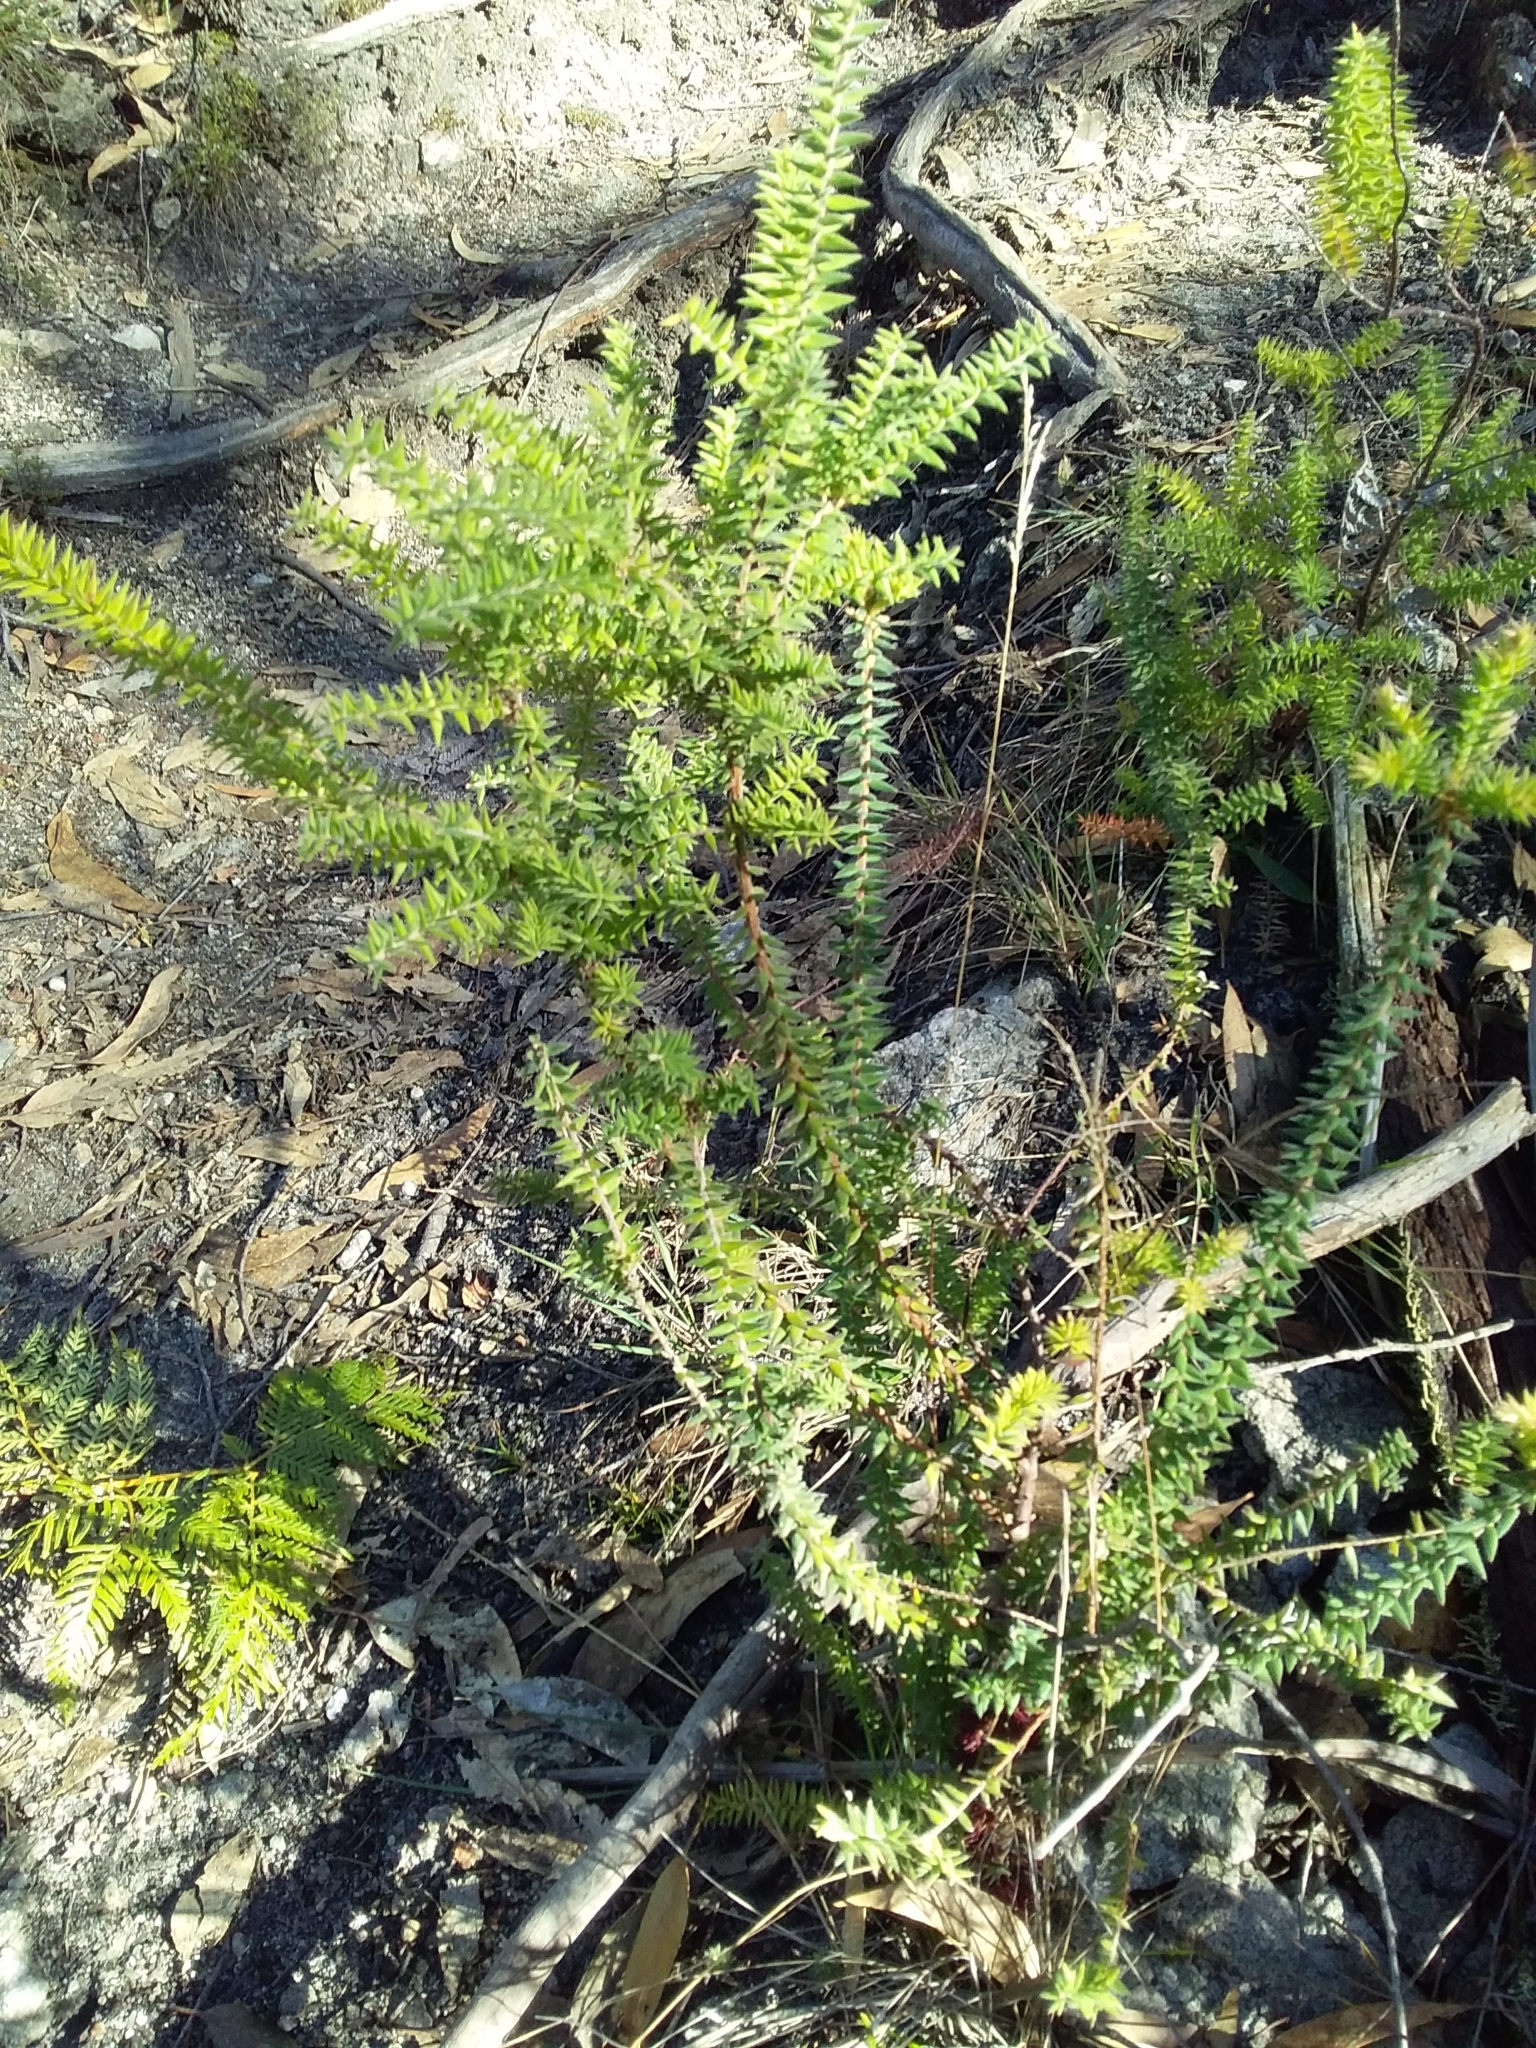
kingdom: Plantae
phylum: Tracheophyta
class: Magnoliopsida
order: Ericales
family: Ericaceae
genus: Acrotriche
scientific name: Acrotriche fasciculiflora
